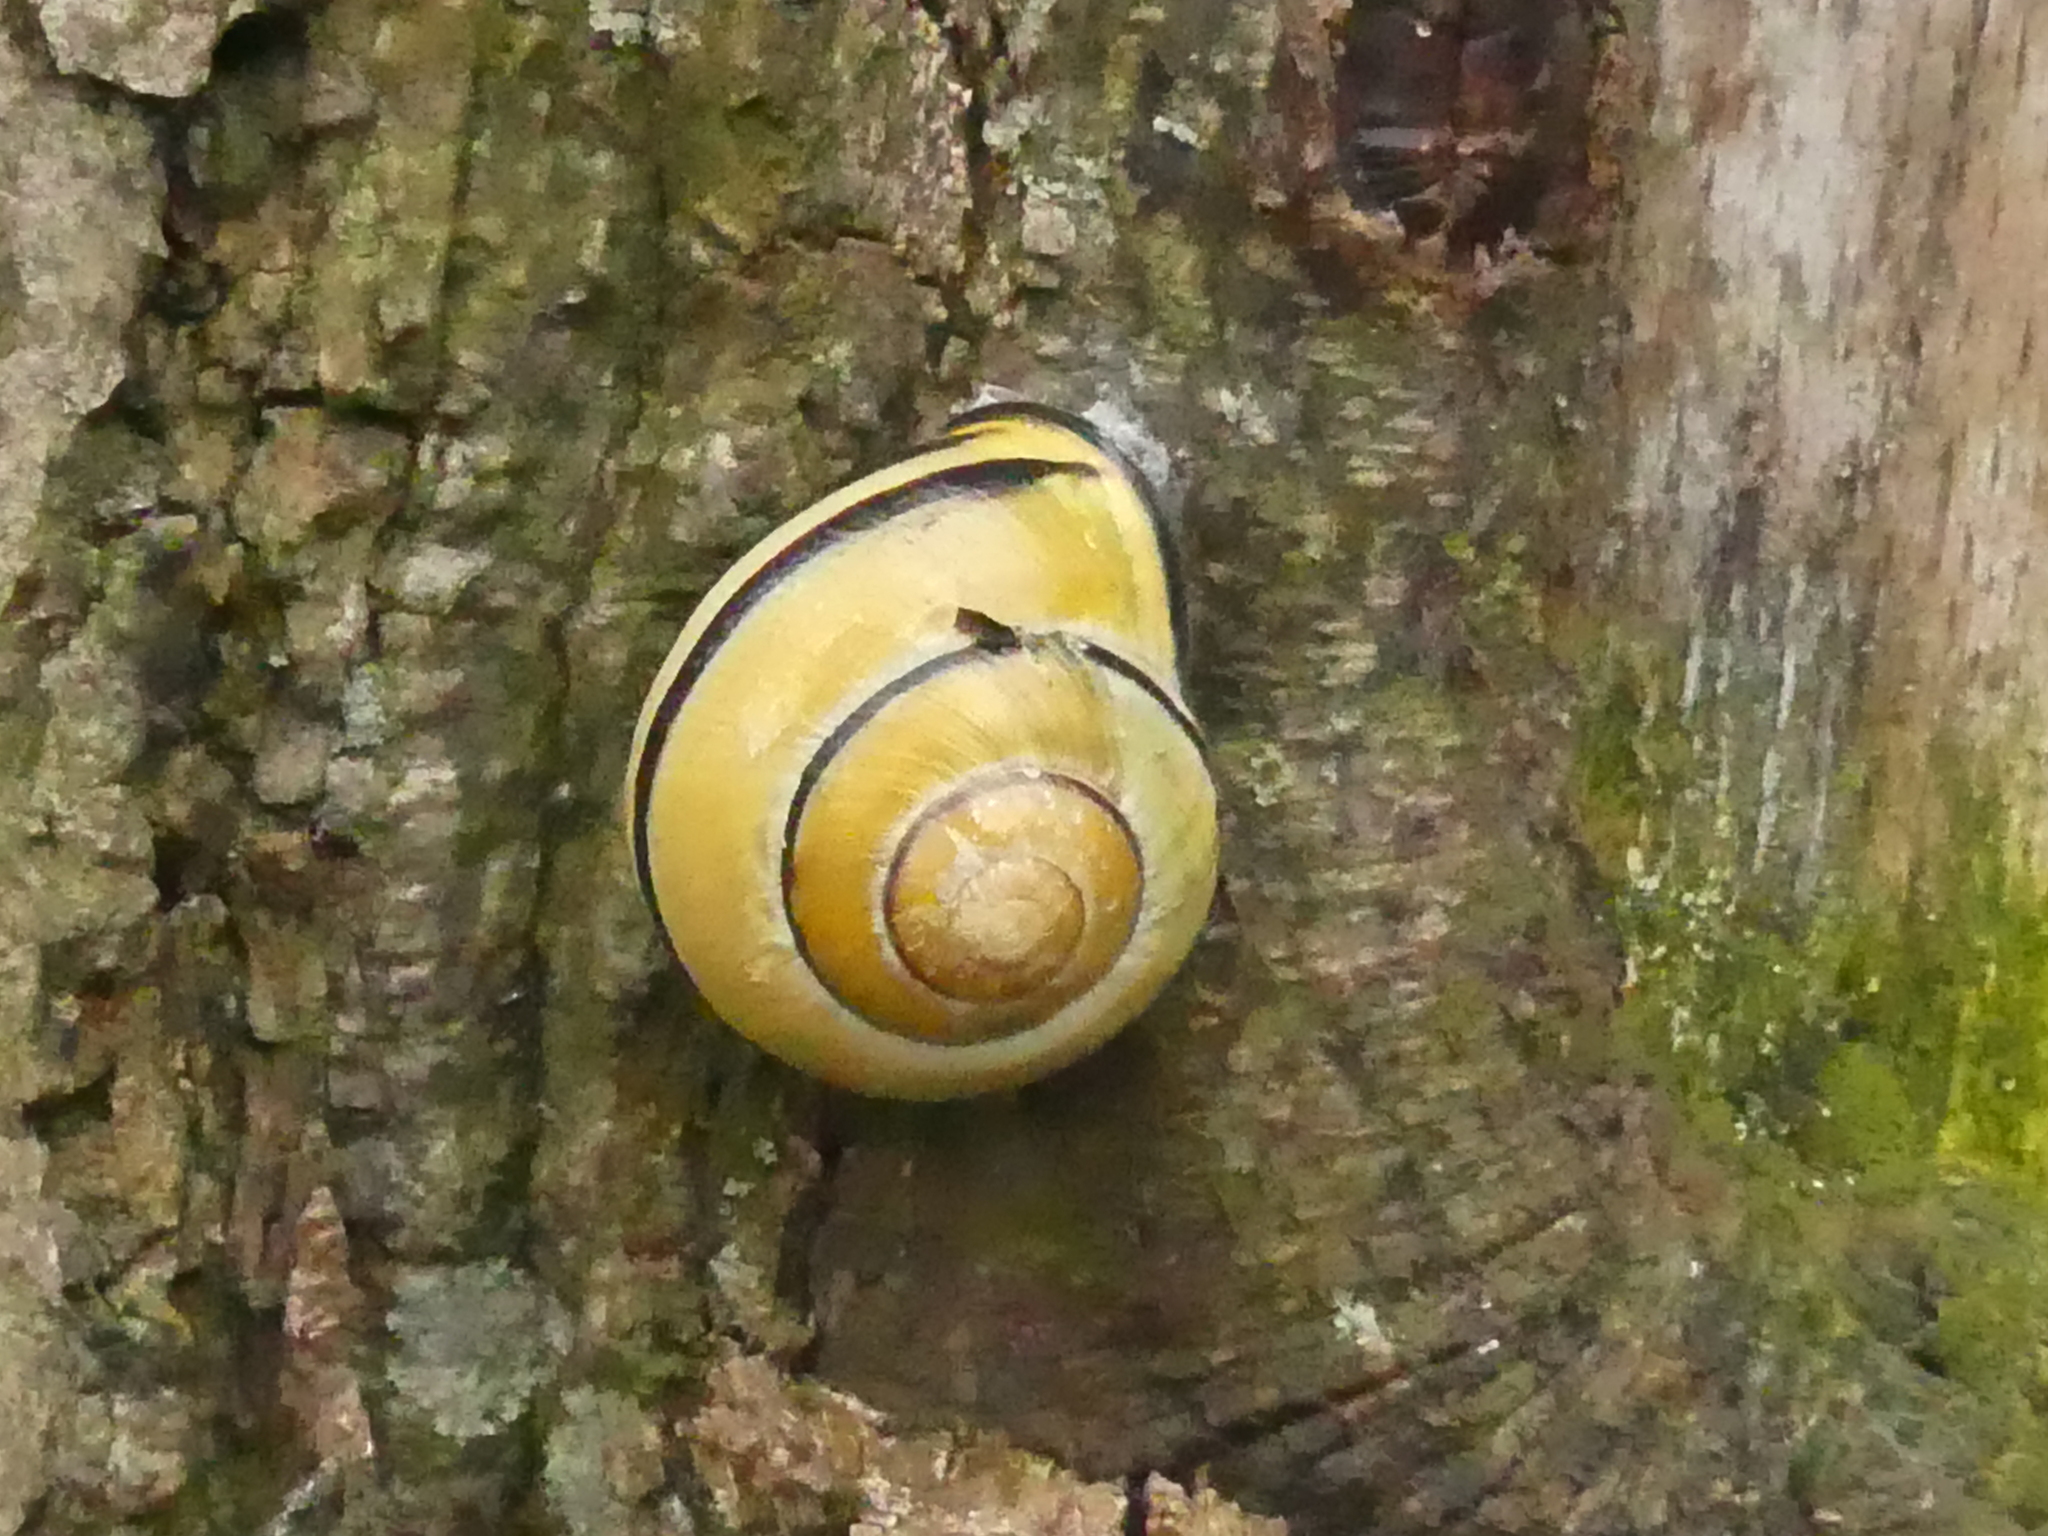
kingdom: Animalia
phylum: Mollusca
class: Gastropoda
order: Stylommatophora
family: Helicidae
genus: Cepaea
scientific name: Cepaea nemoralis
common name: Grovesnail
